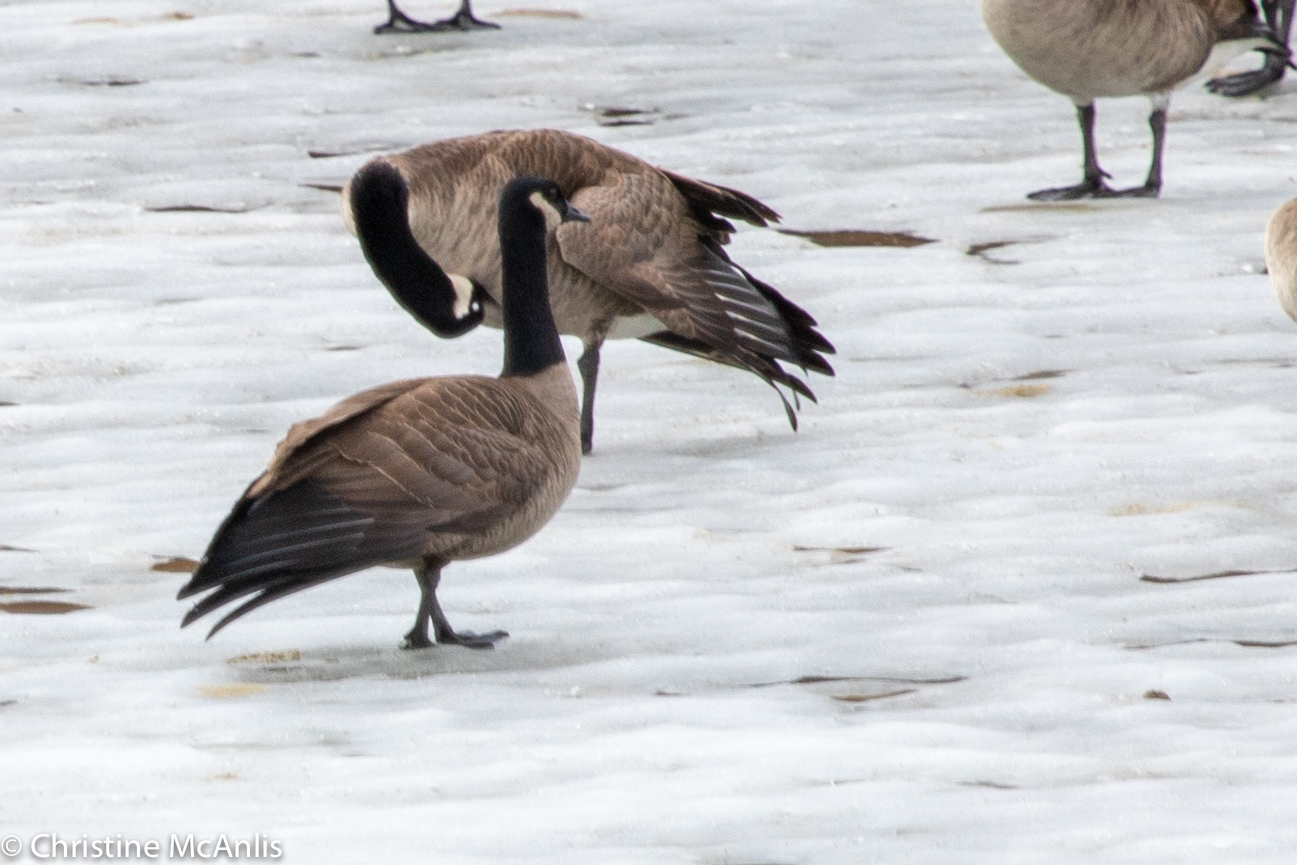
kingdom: Animalia
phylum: Chordata
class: Aves
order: Anseriformes
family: Anatidae
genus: Branta
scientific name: Branta canadensis
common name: Canada goose
